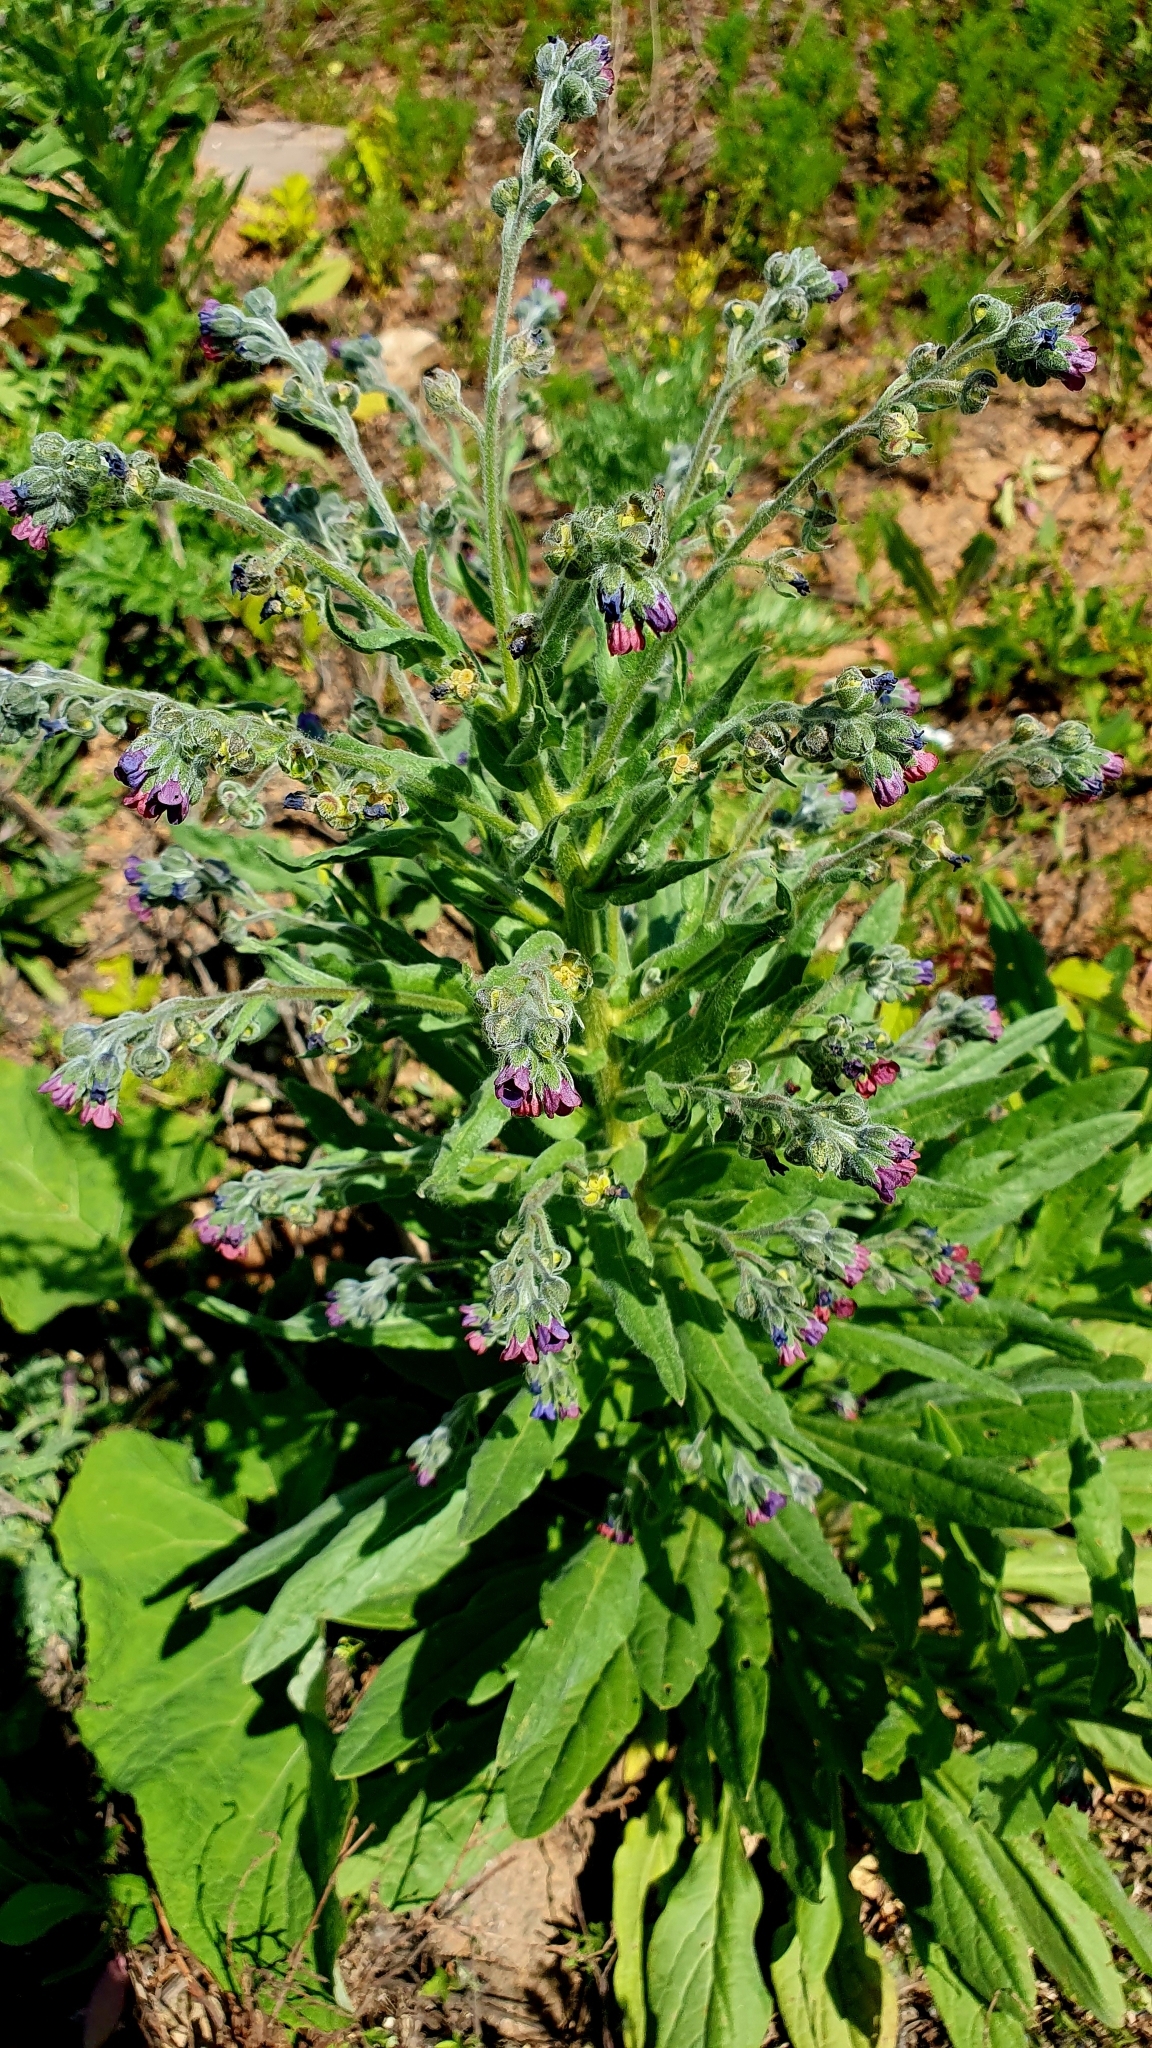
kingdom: Plantae
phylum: Tracheophyta
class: Magnoliopsida
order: Boraginales
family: Boraginaceae
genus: Cynoglossum
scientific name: Cynoglossum officinale
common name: Hound's-tongue
